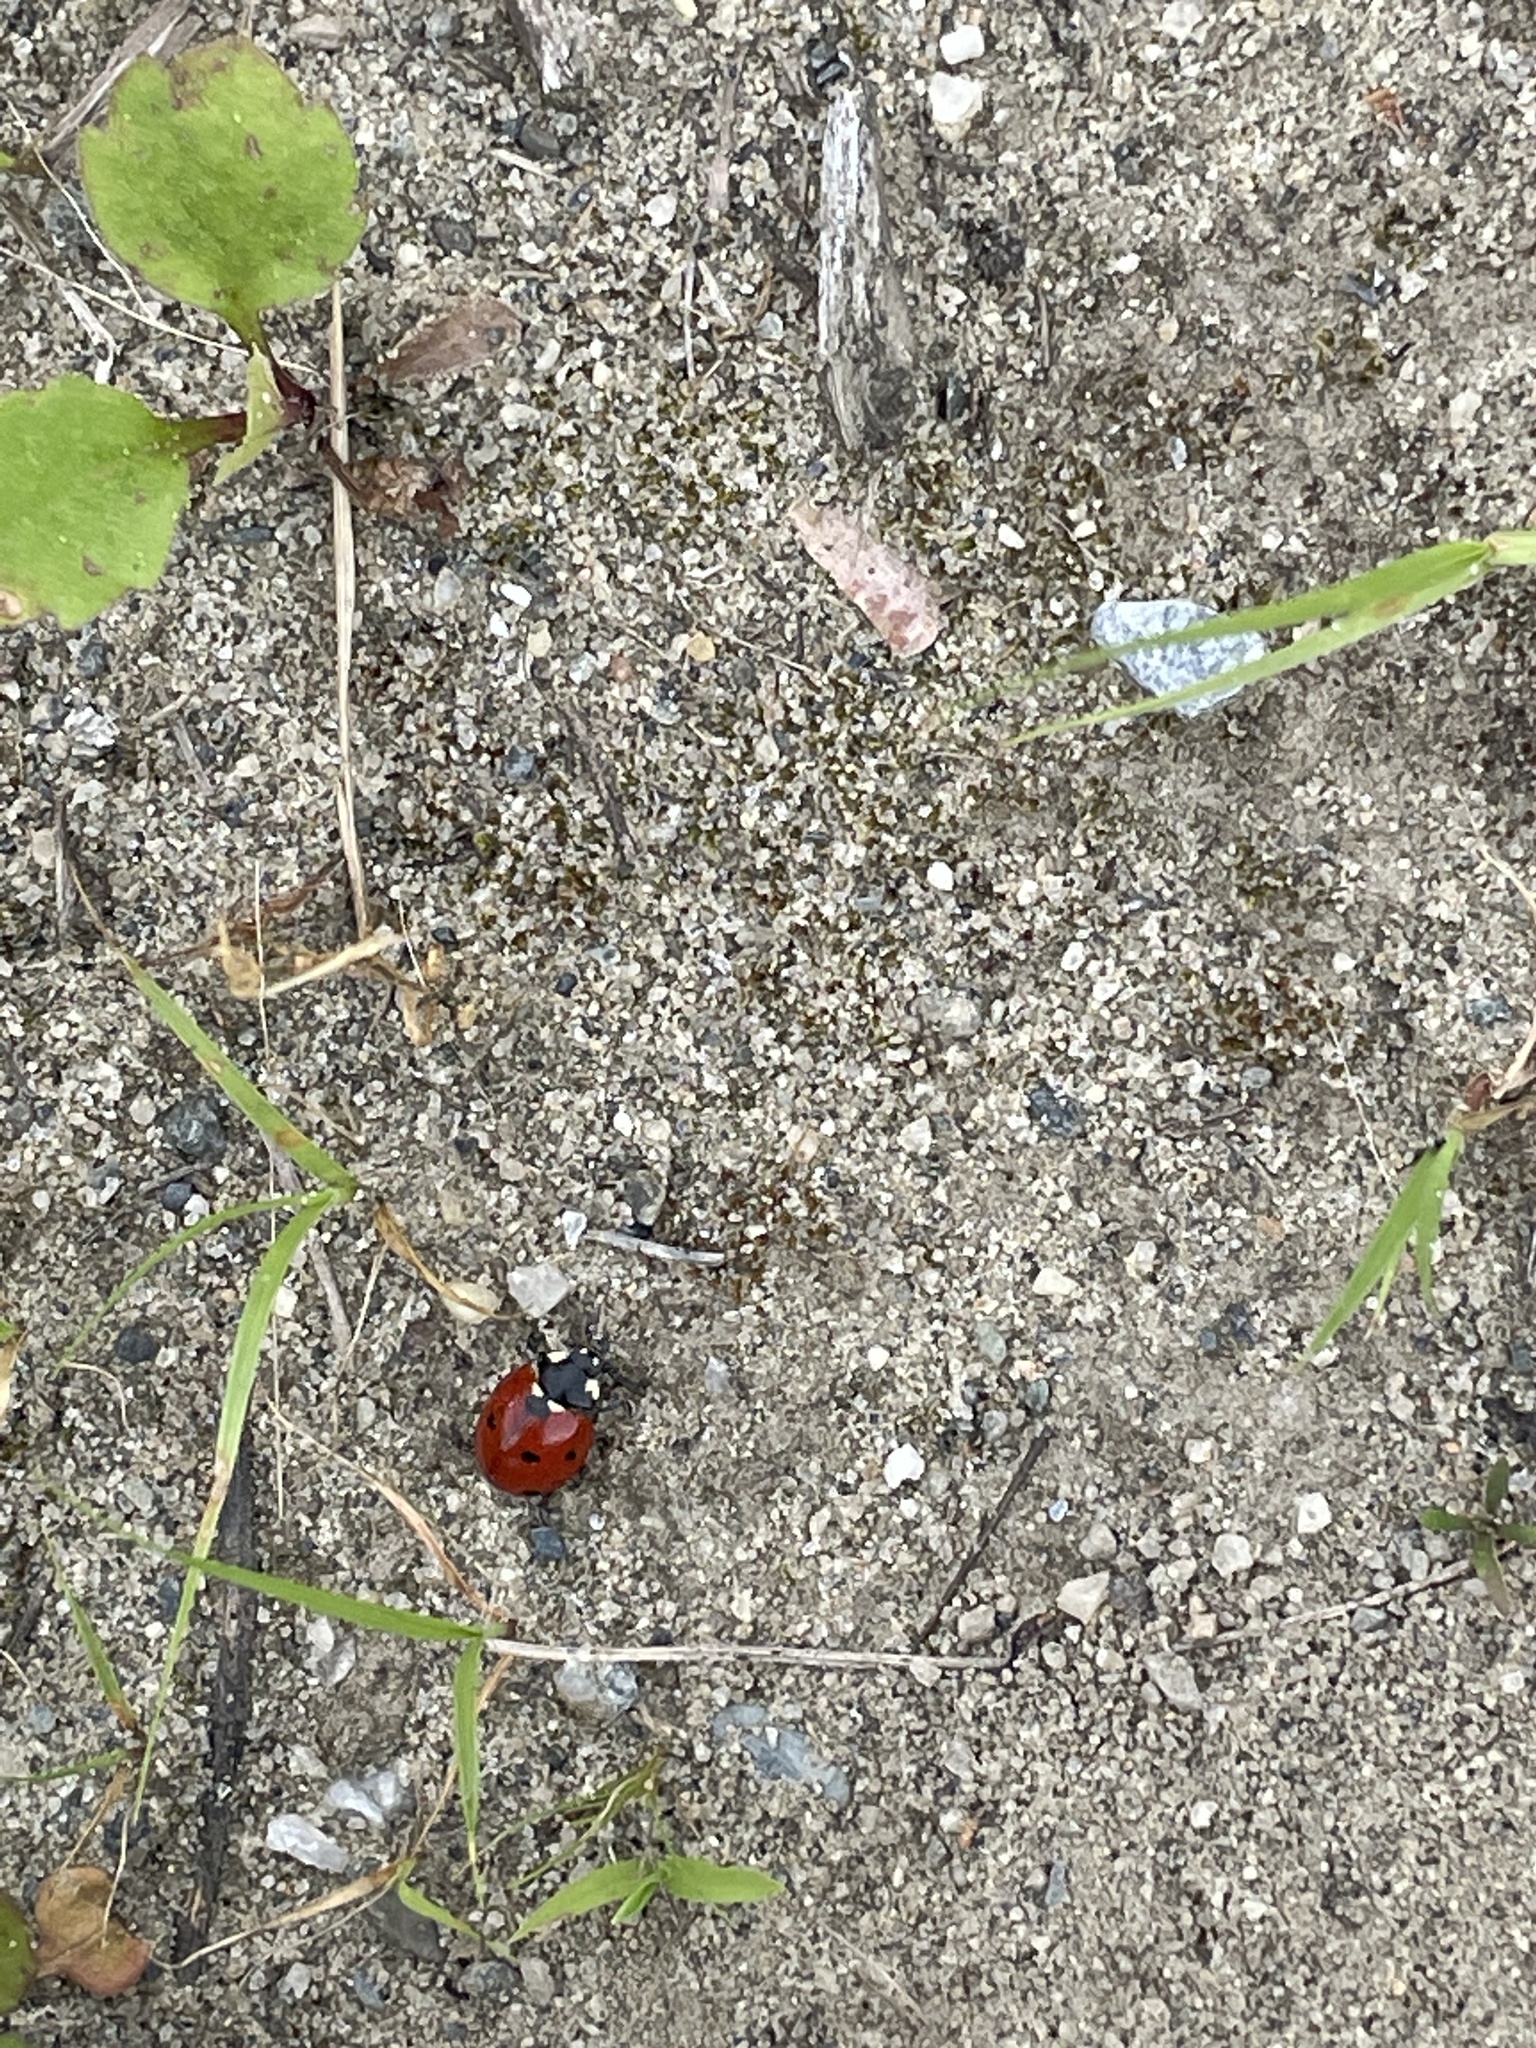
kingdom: Animalia
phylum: Arthropoda
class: Insecta
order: Coleoptera
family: Coccinellidae
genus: Coccinella
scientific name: Coccinella septempunctata
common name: Sevenspotted lady beetle
